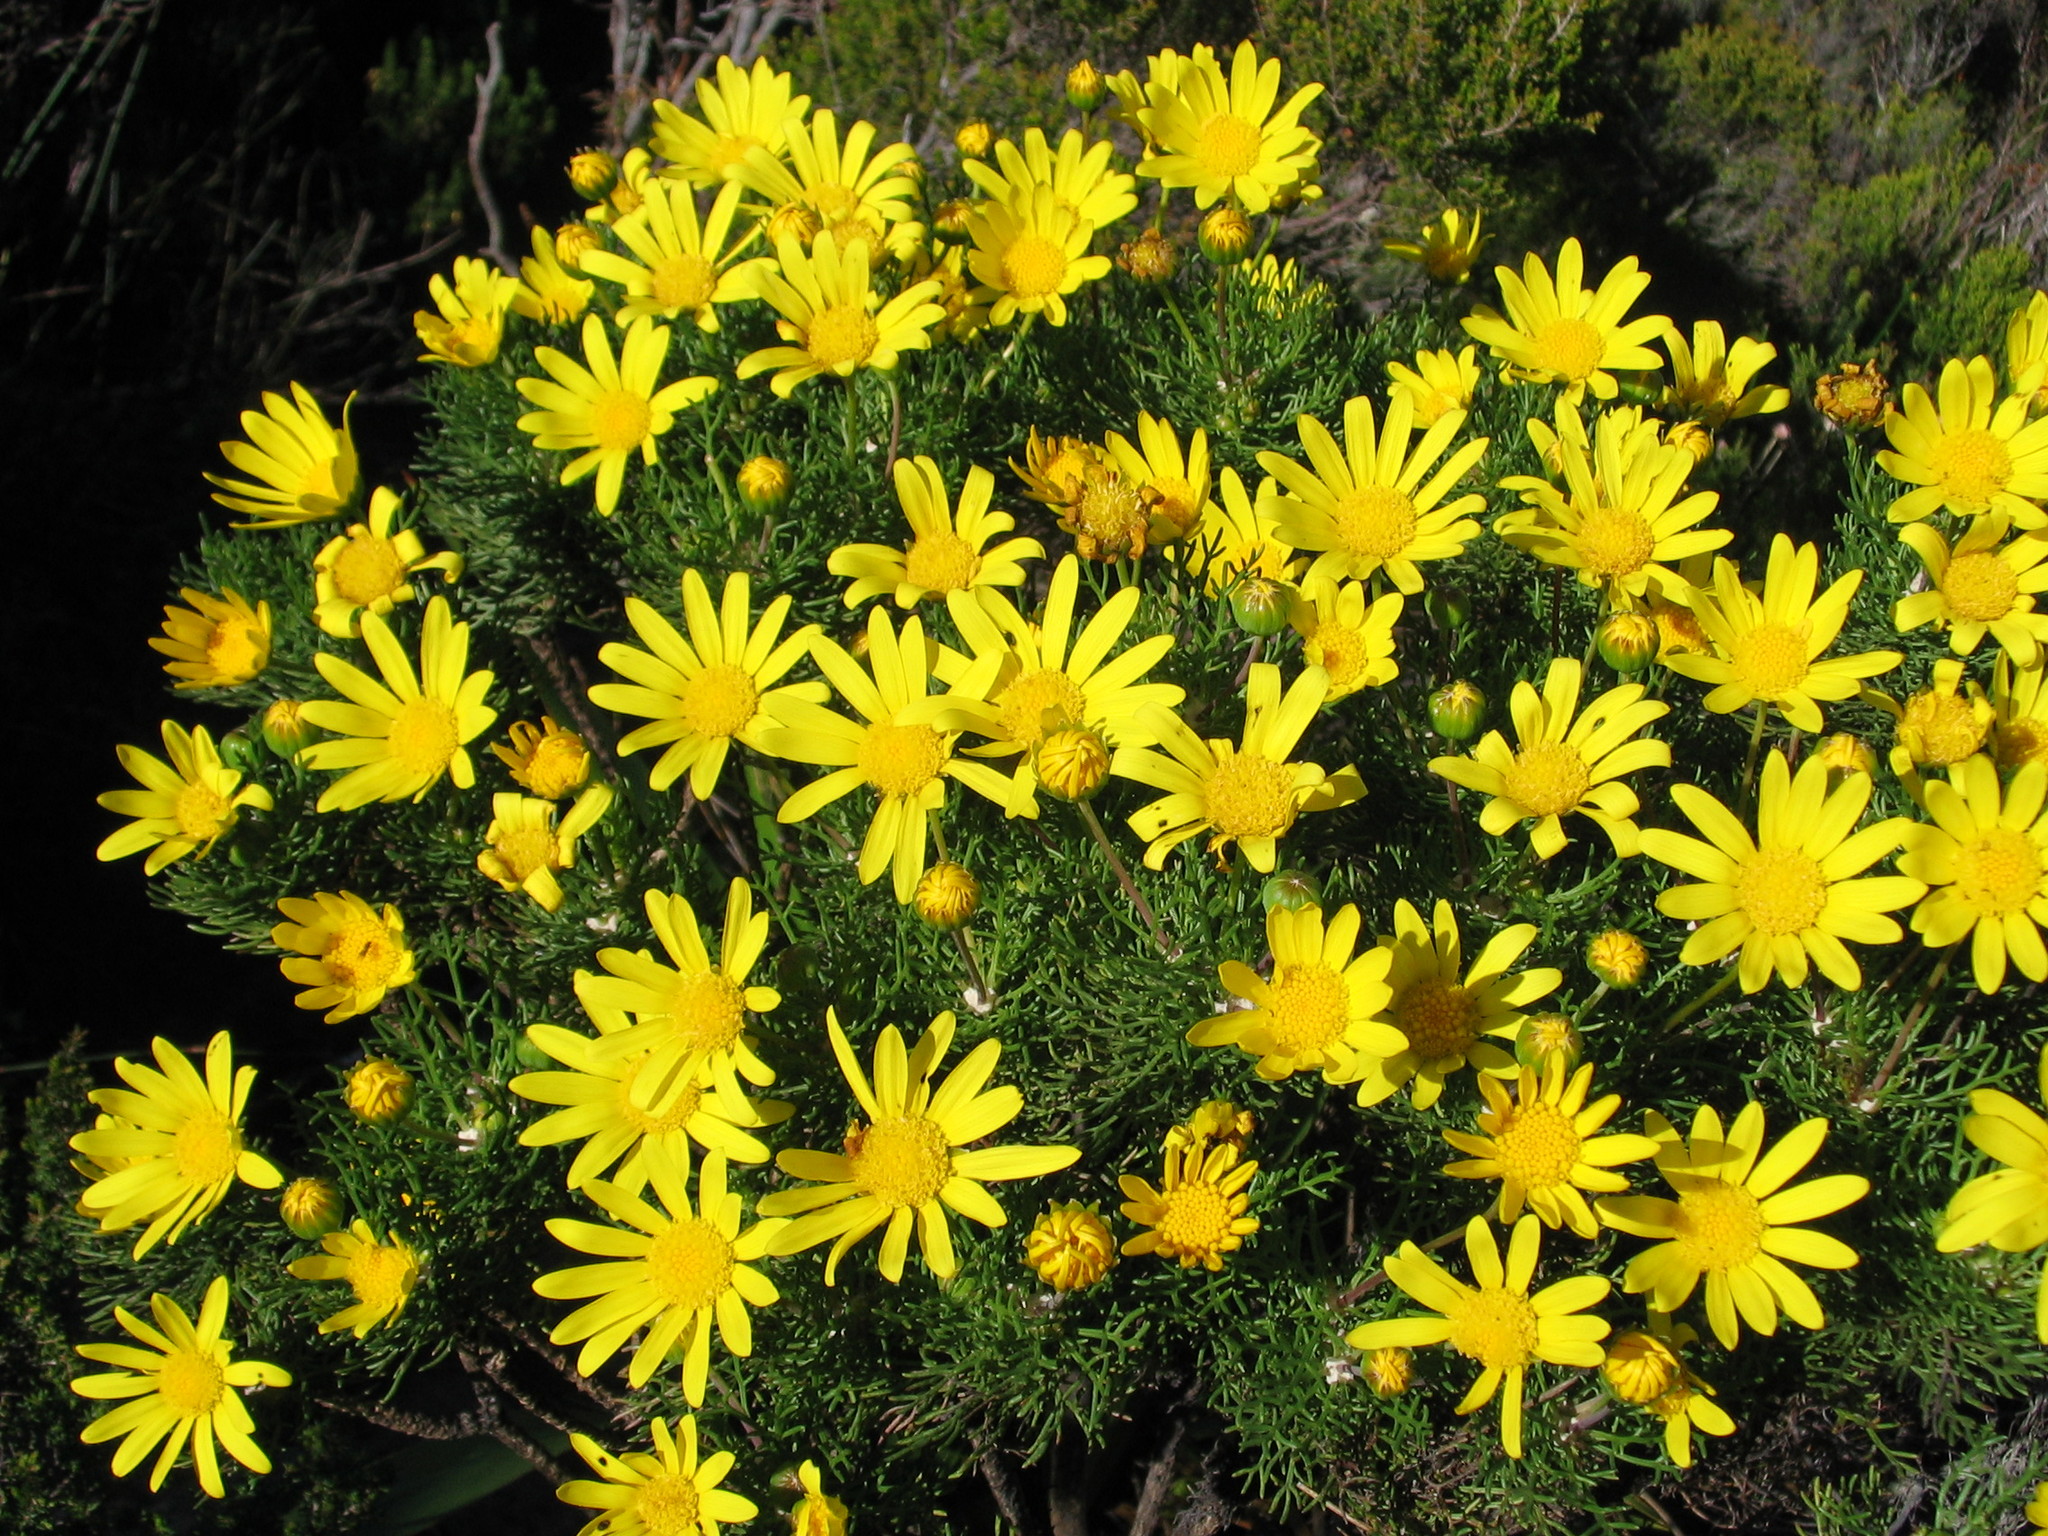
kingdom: Plantae
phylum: Tracheophyta
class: Magnoliopsida
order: Asterales
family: Asteraceae
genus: Euryops
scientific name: Euryops abrotanifolius
